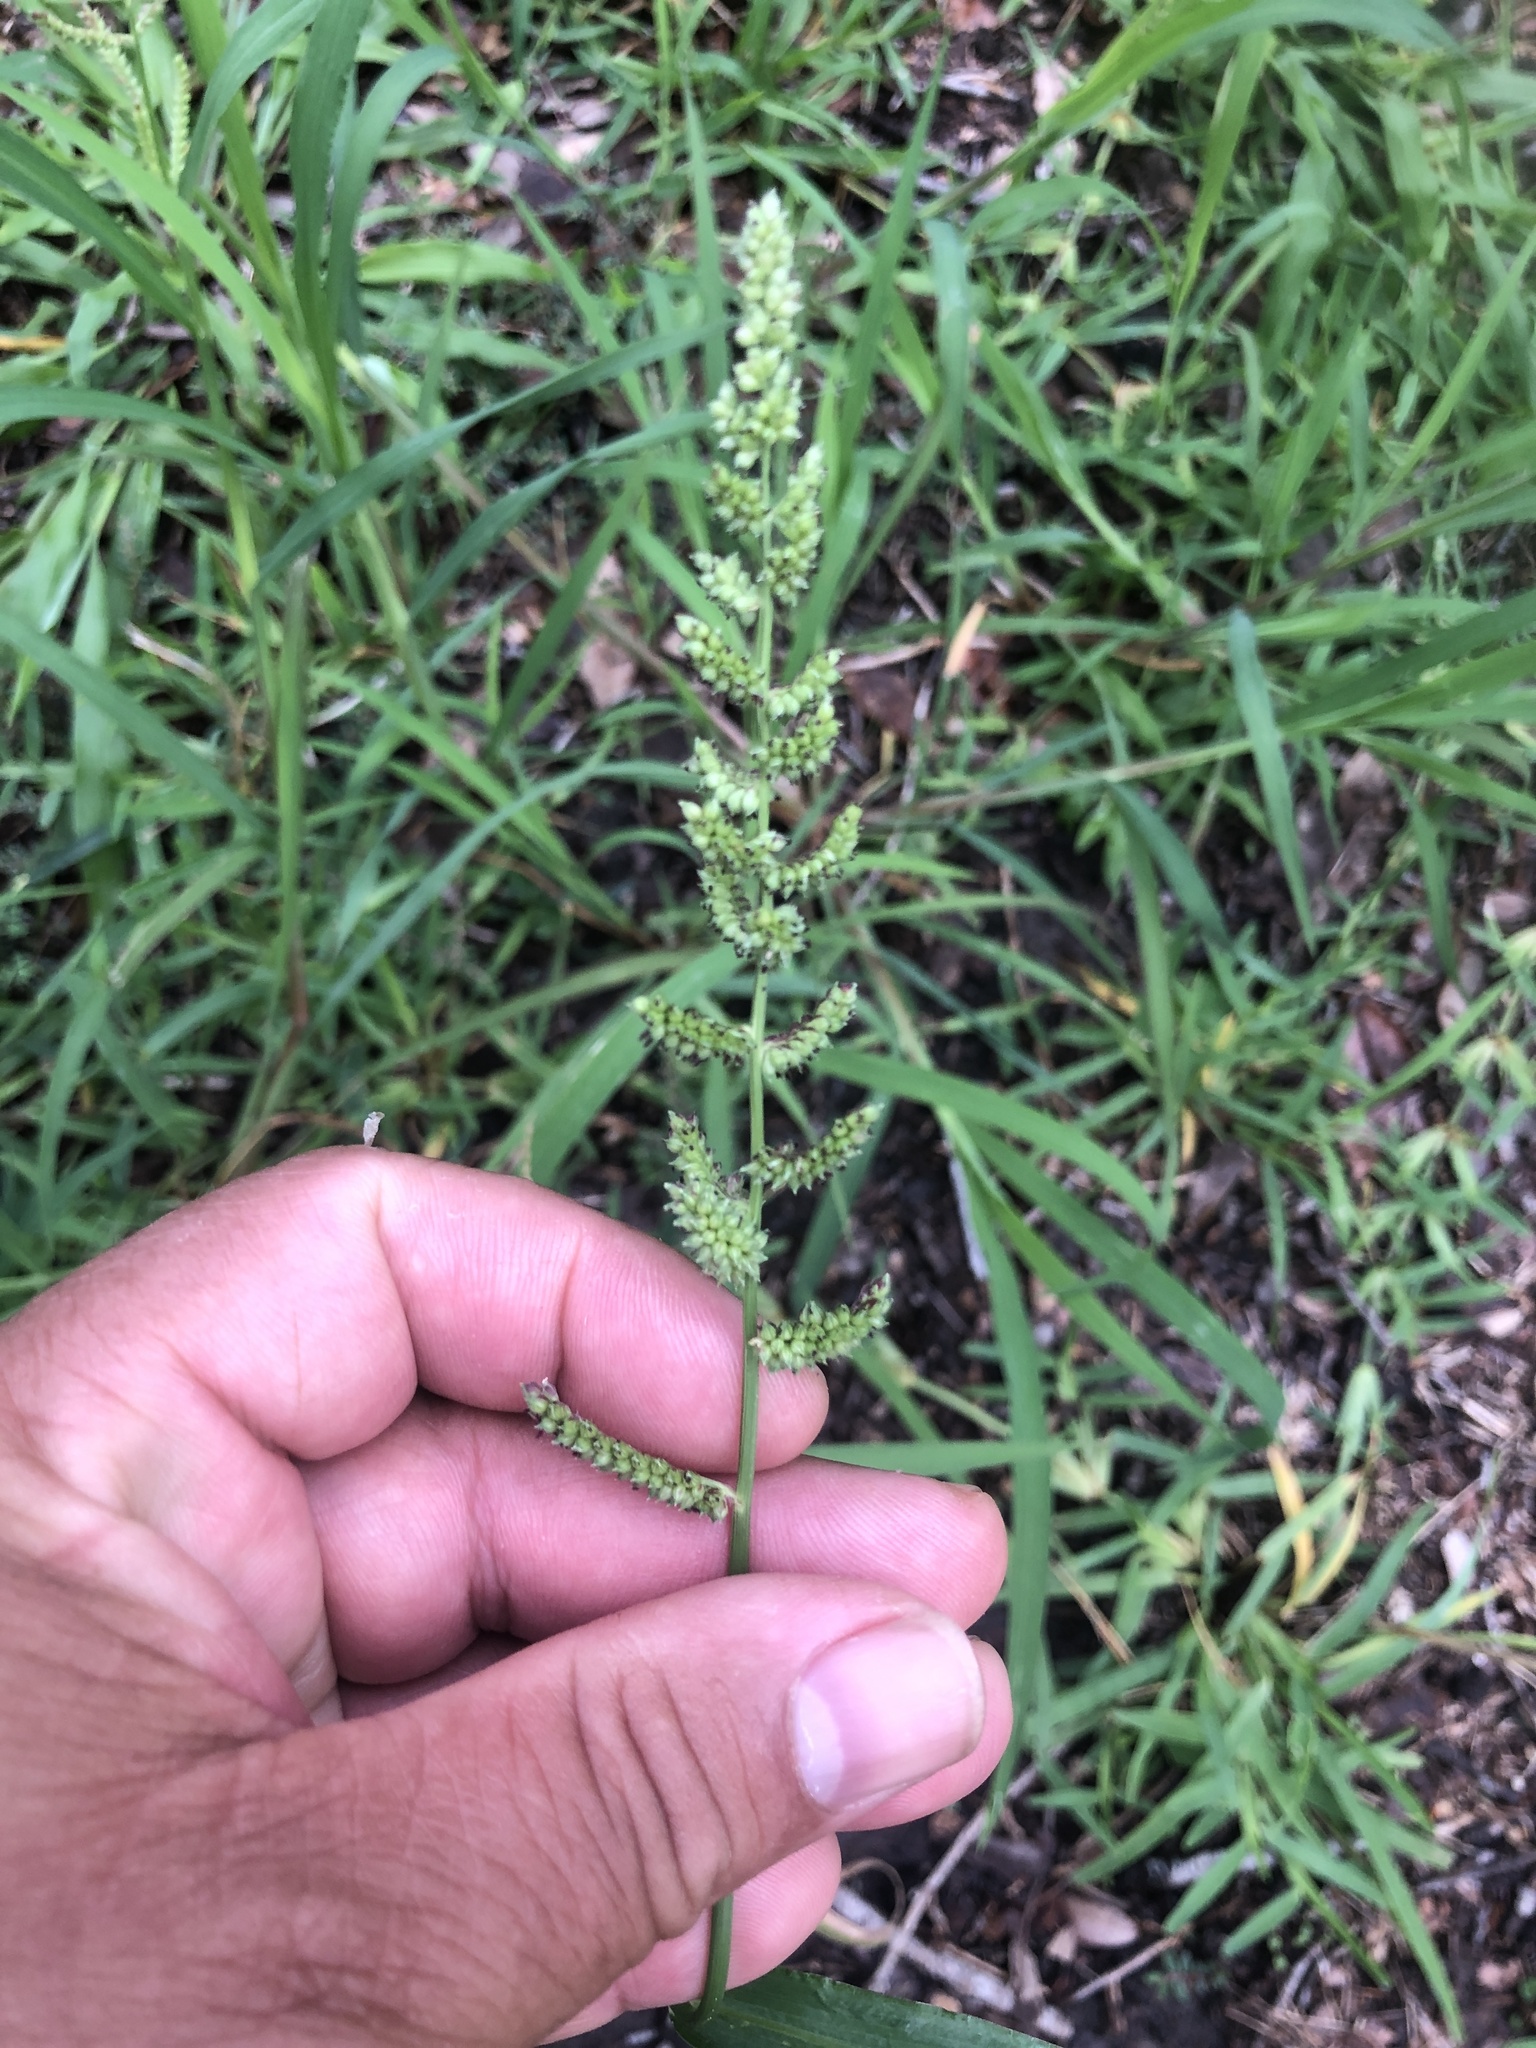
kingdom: Plantae
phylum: Tracheophyta
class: Liliopsida
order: Poales
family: Poaceae
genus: Echinochloa
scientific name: Echinochloa colonum
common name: Jungle rice
